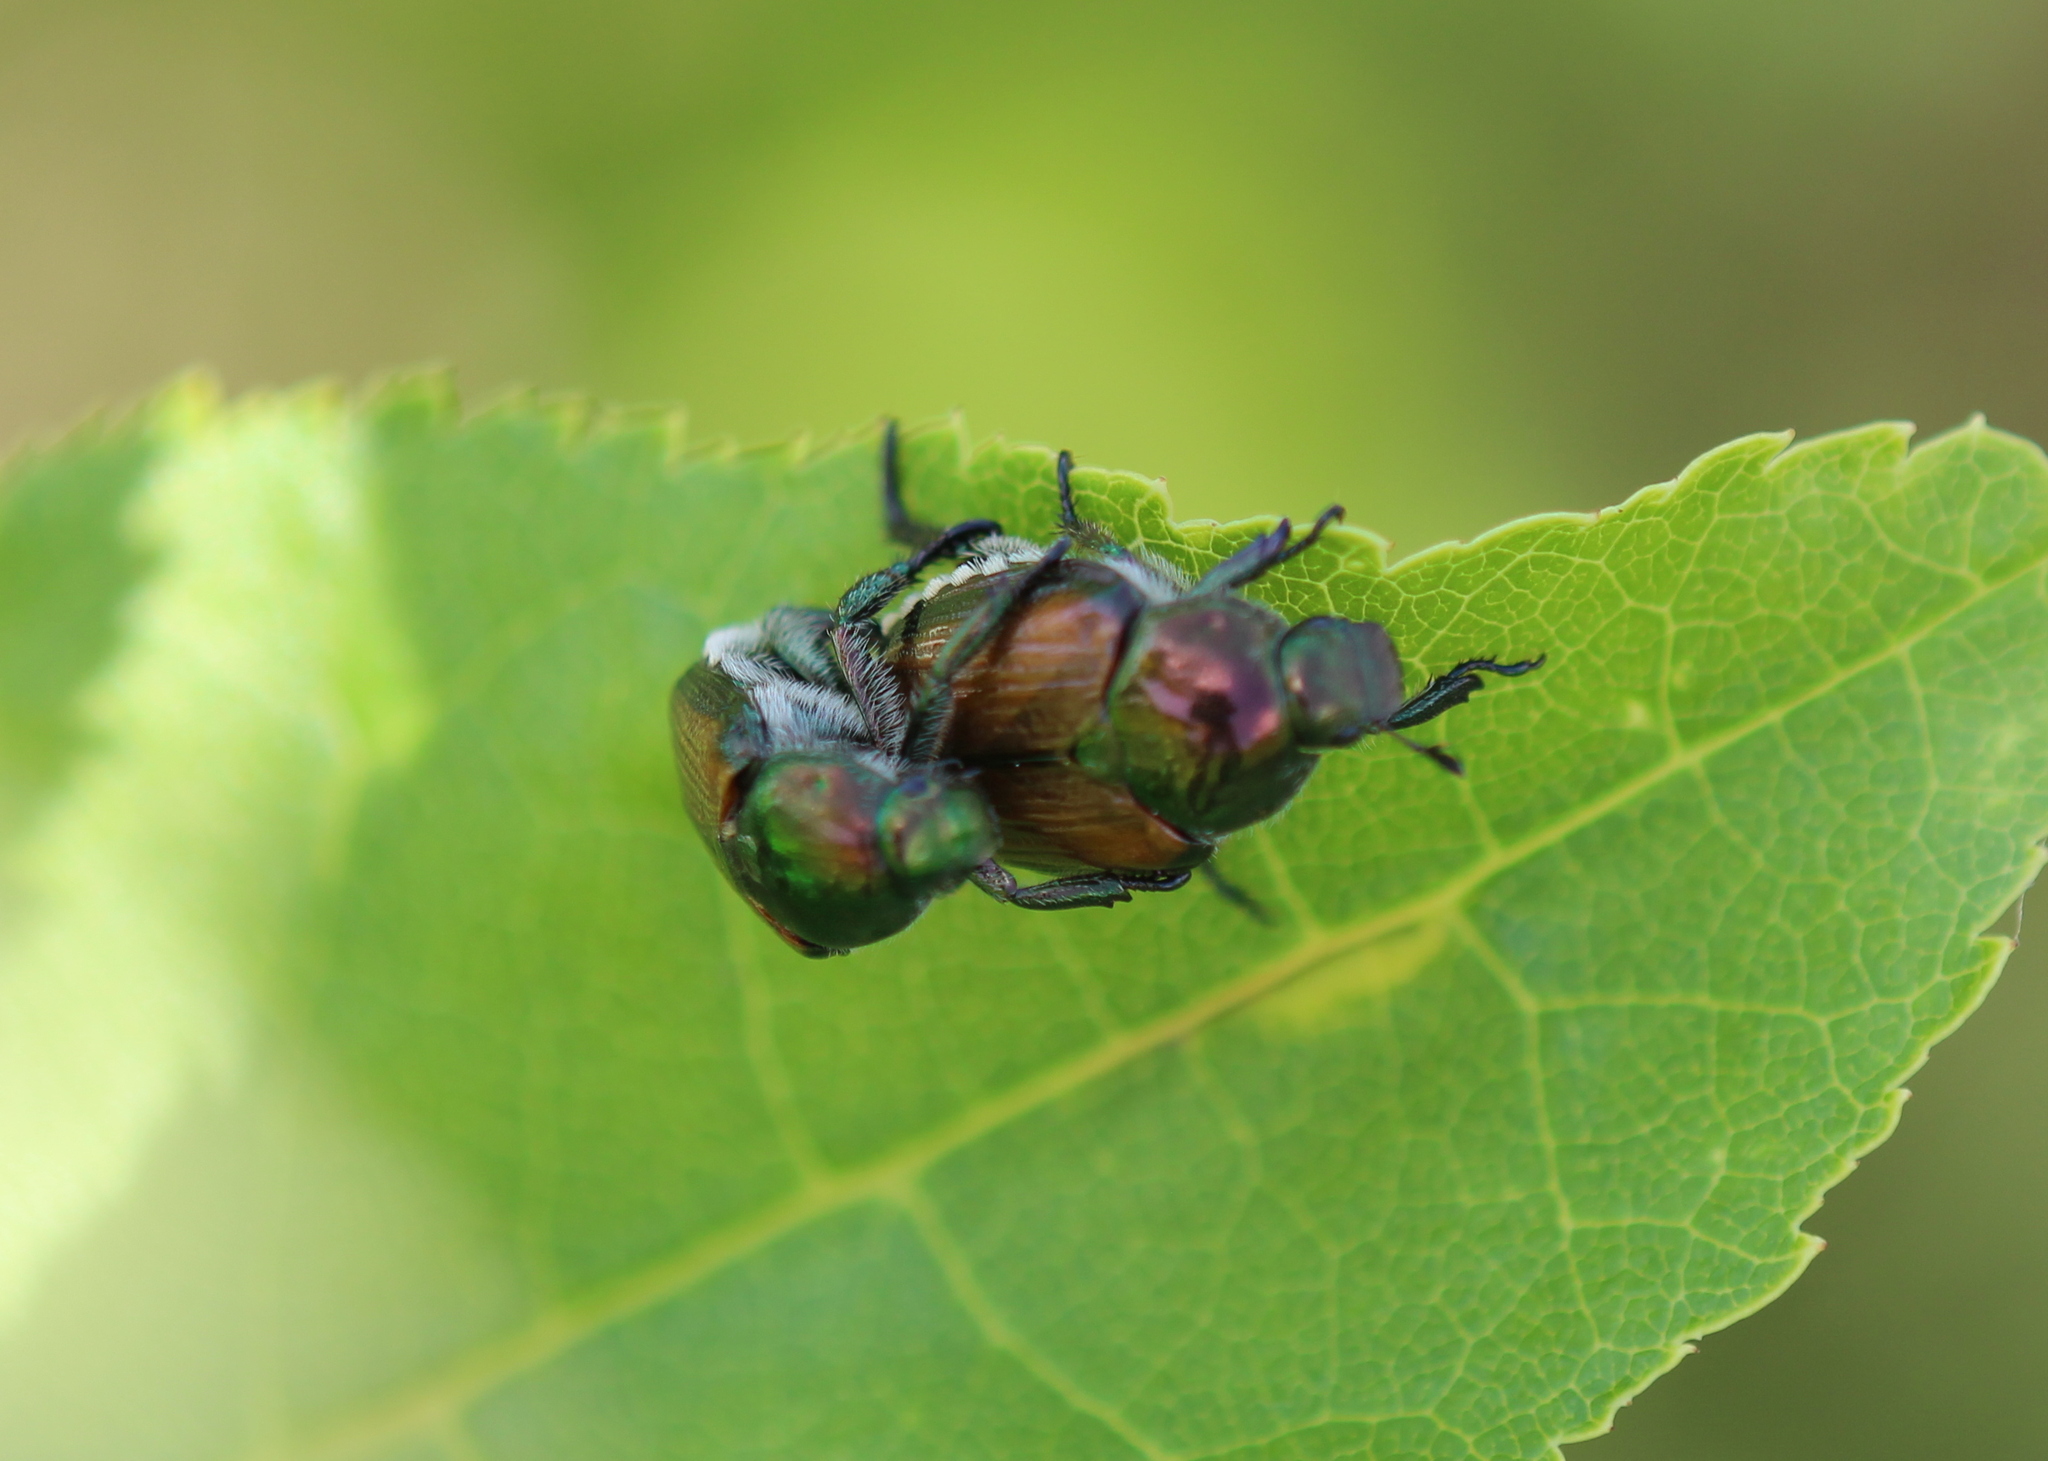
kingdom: Animalia
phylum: Arthropoda
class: Insecta
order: Coleoptera
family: Scarabaeidae
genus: Popillia
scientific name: Popillia japonica
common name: Japanese beetle
